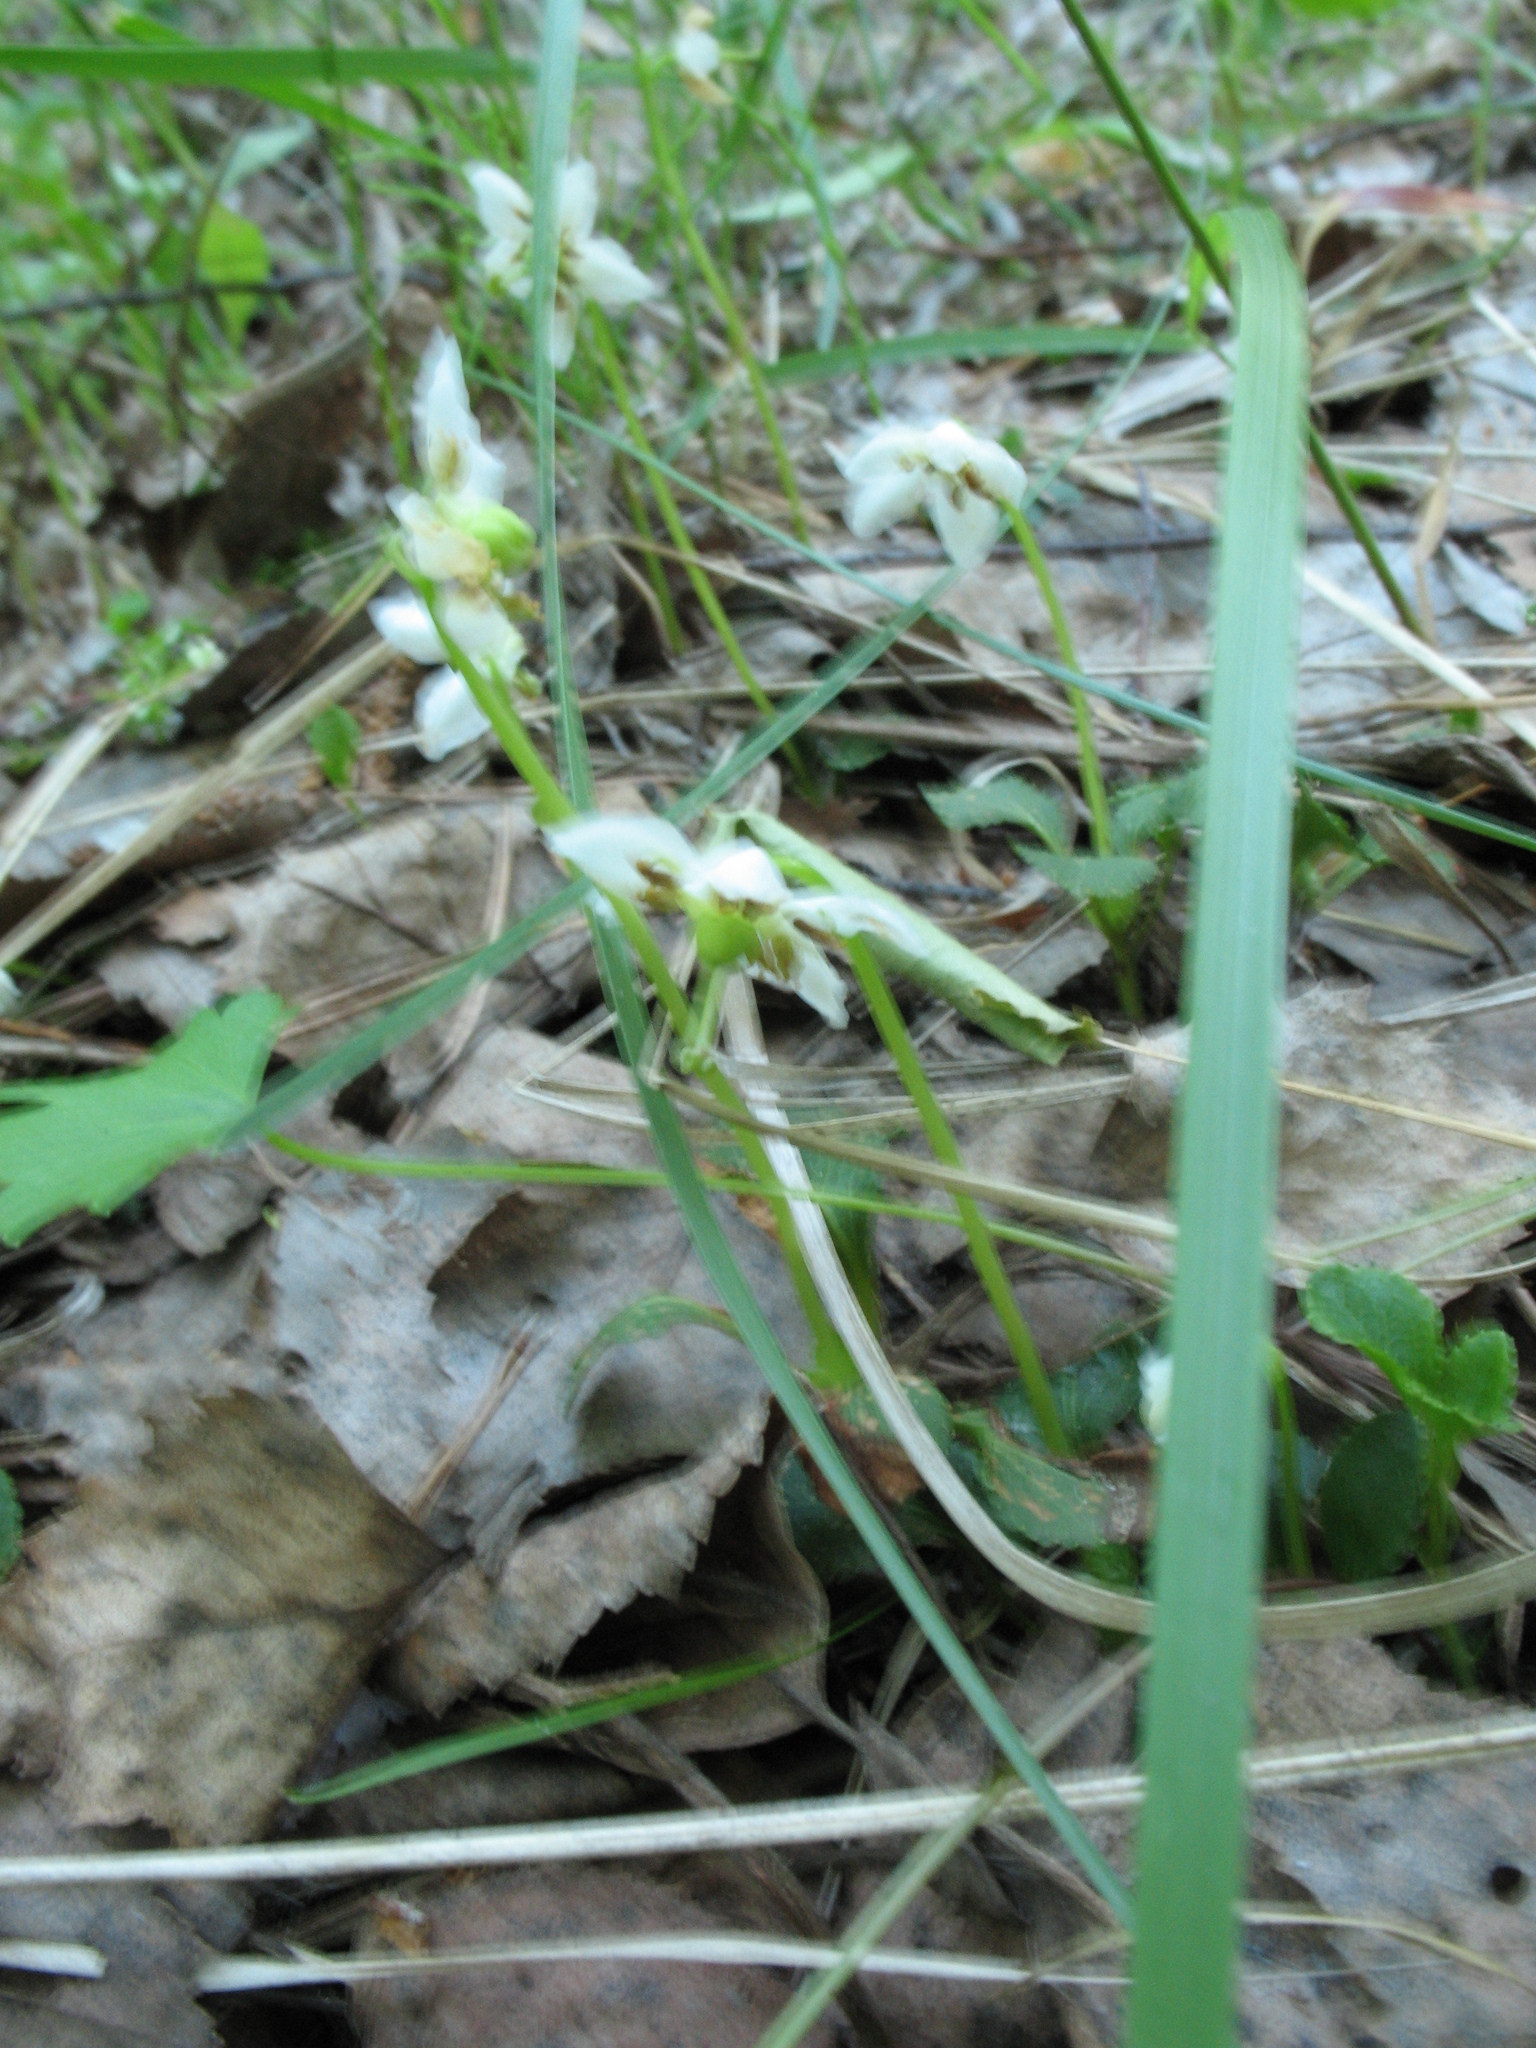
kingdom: Plantae
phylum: Tracheophyta
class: Magnoliopsida
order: Ericales
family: Ericaceae
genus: Moneses
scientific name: Moneses uniflora
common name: One-flowered wintergreen
